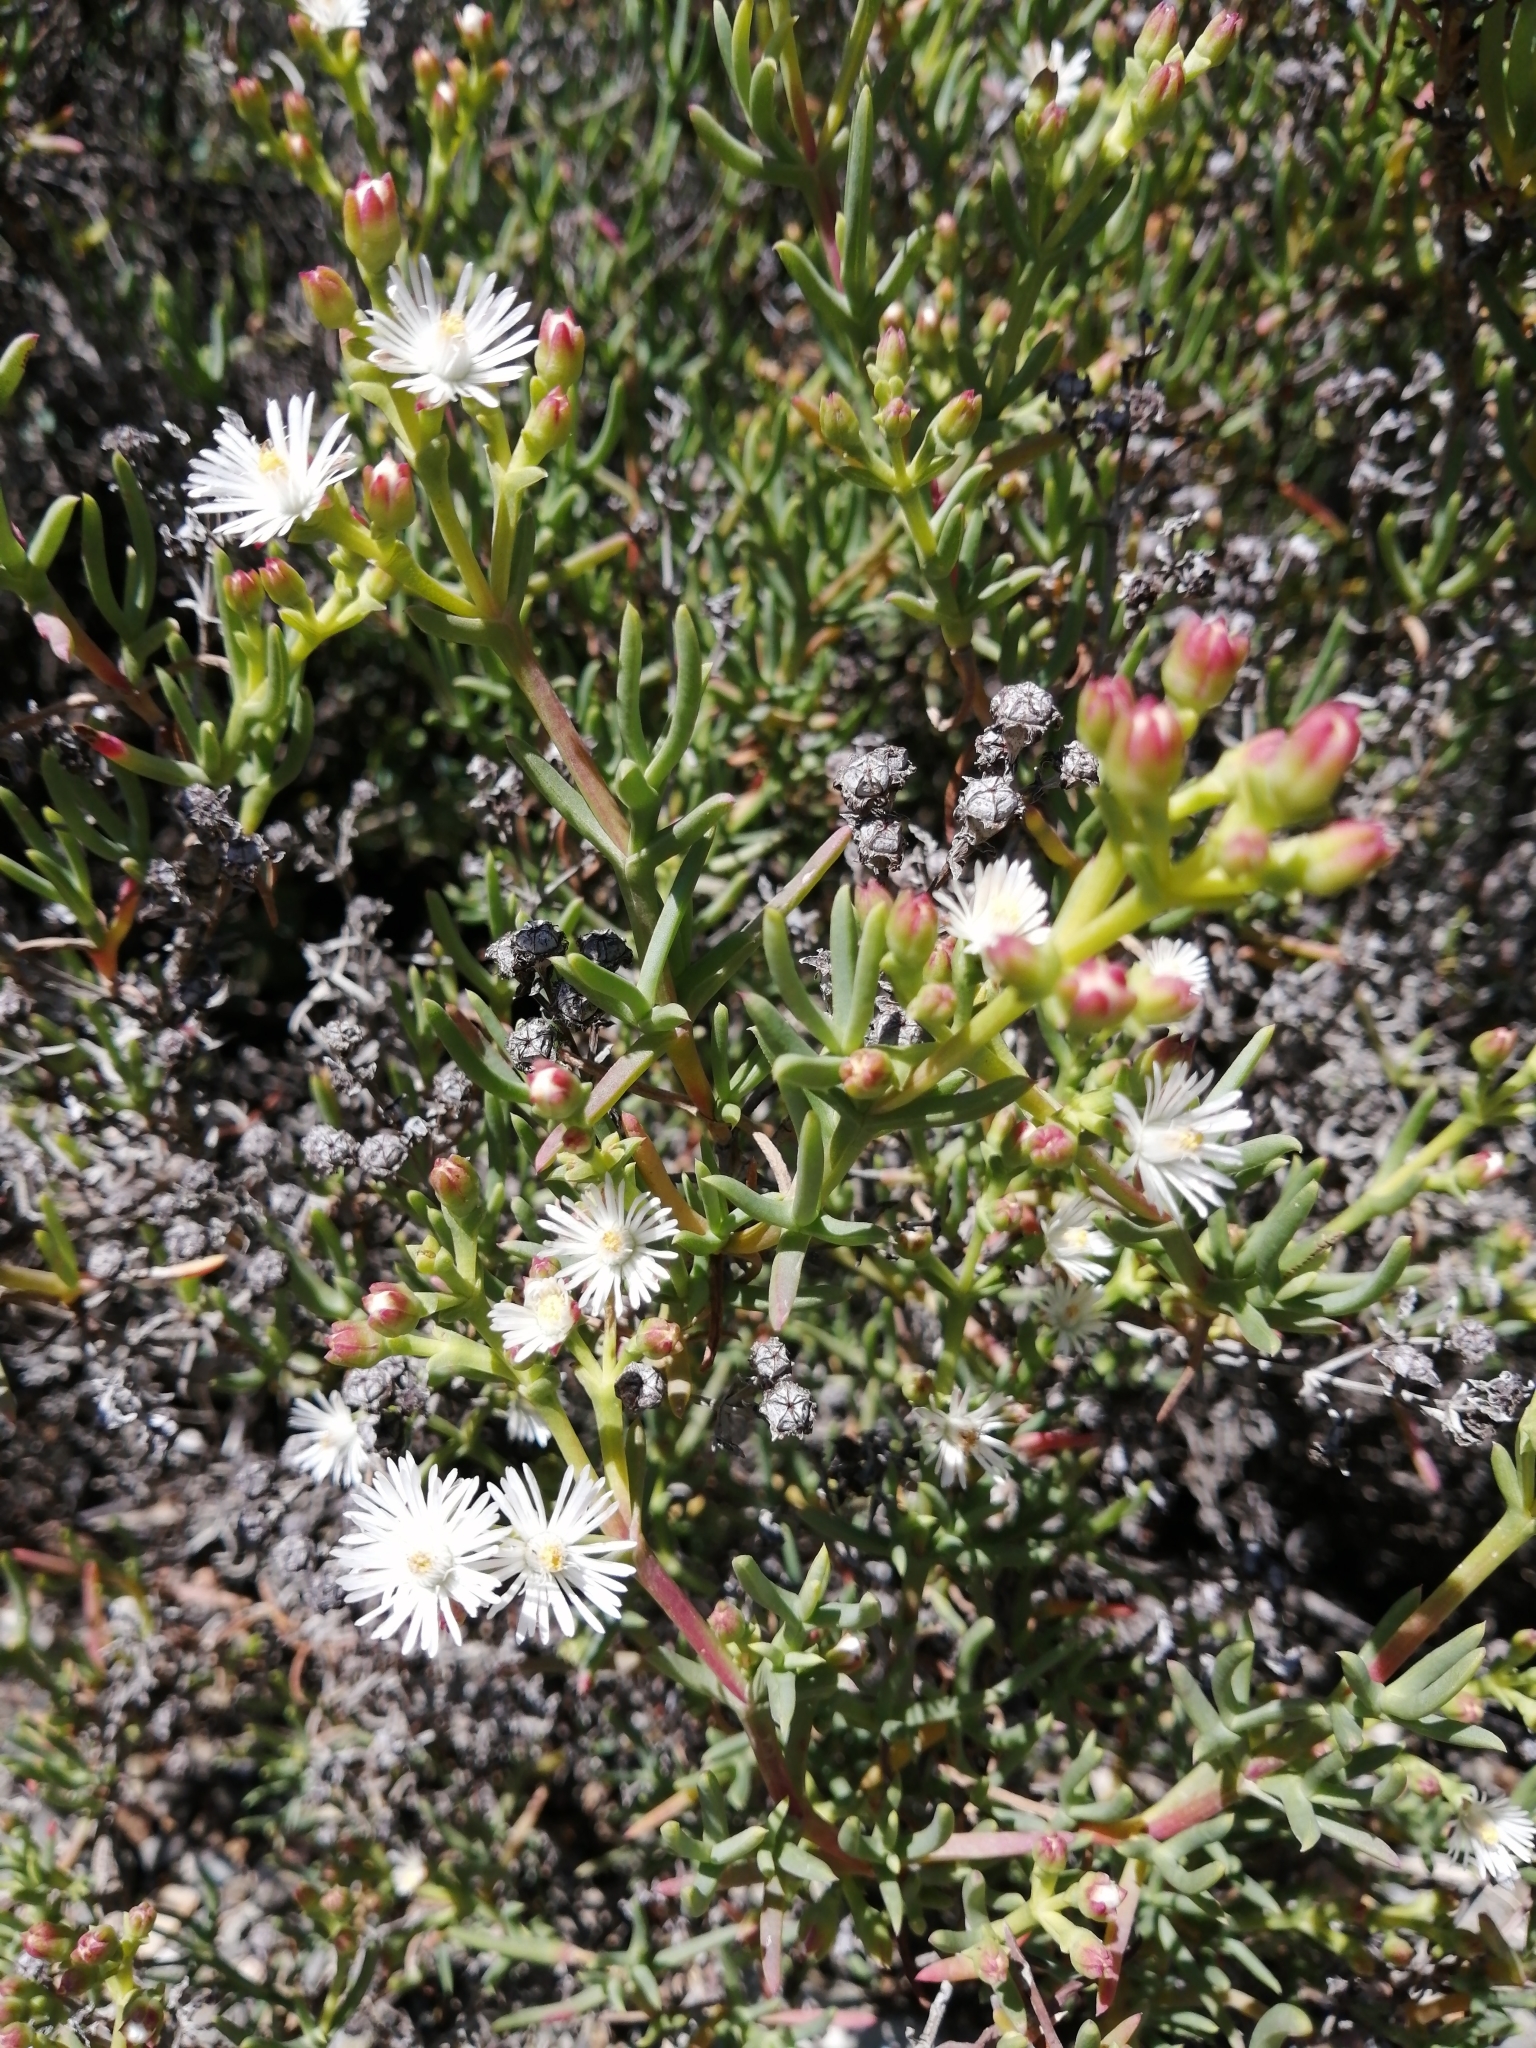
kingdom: Plantae
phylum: Tracheophyta
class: Magnoliopsida
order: Caryophyllales
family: Aizoaceae
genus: Ruschia
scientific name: Ruschia multiflora
